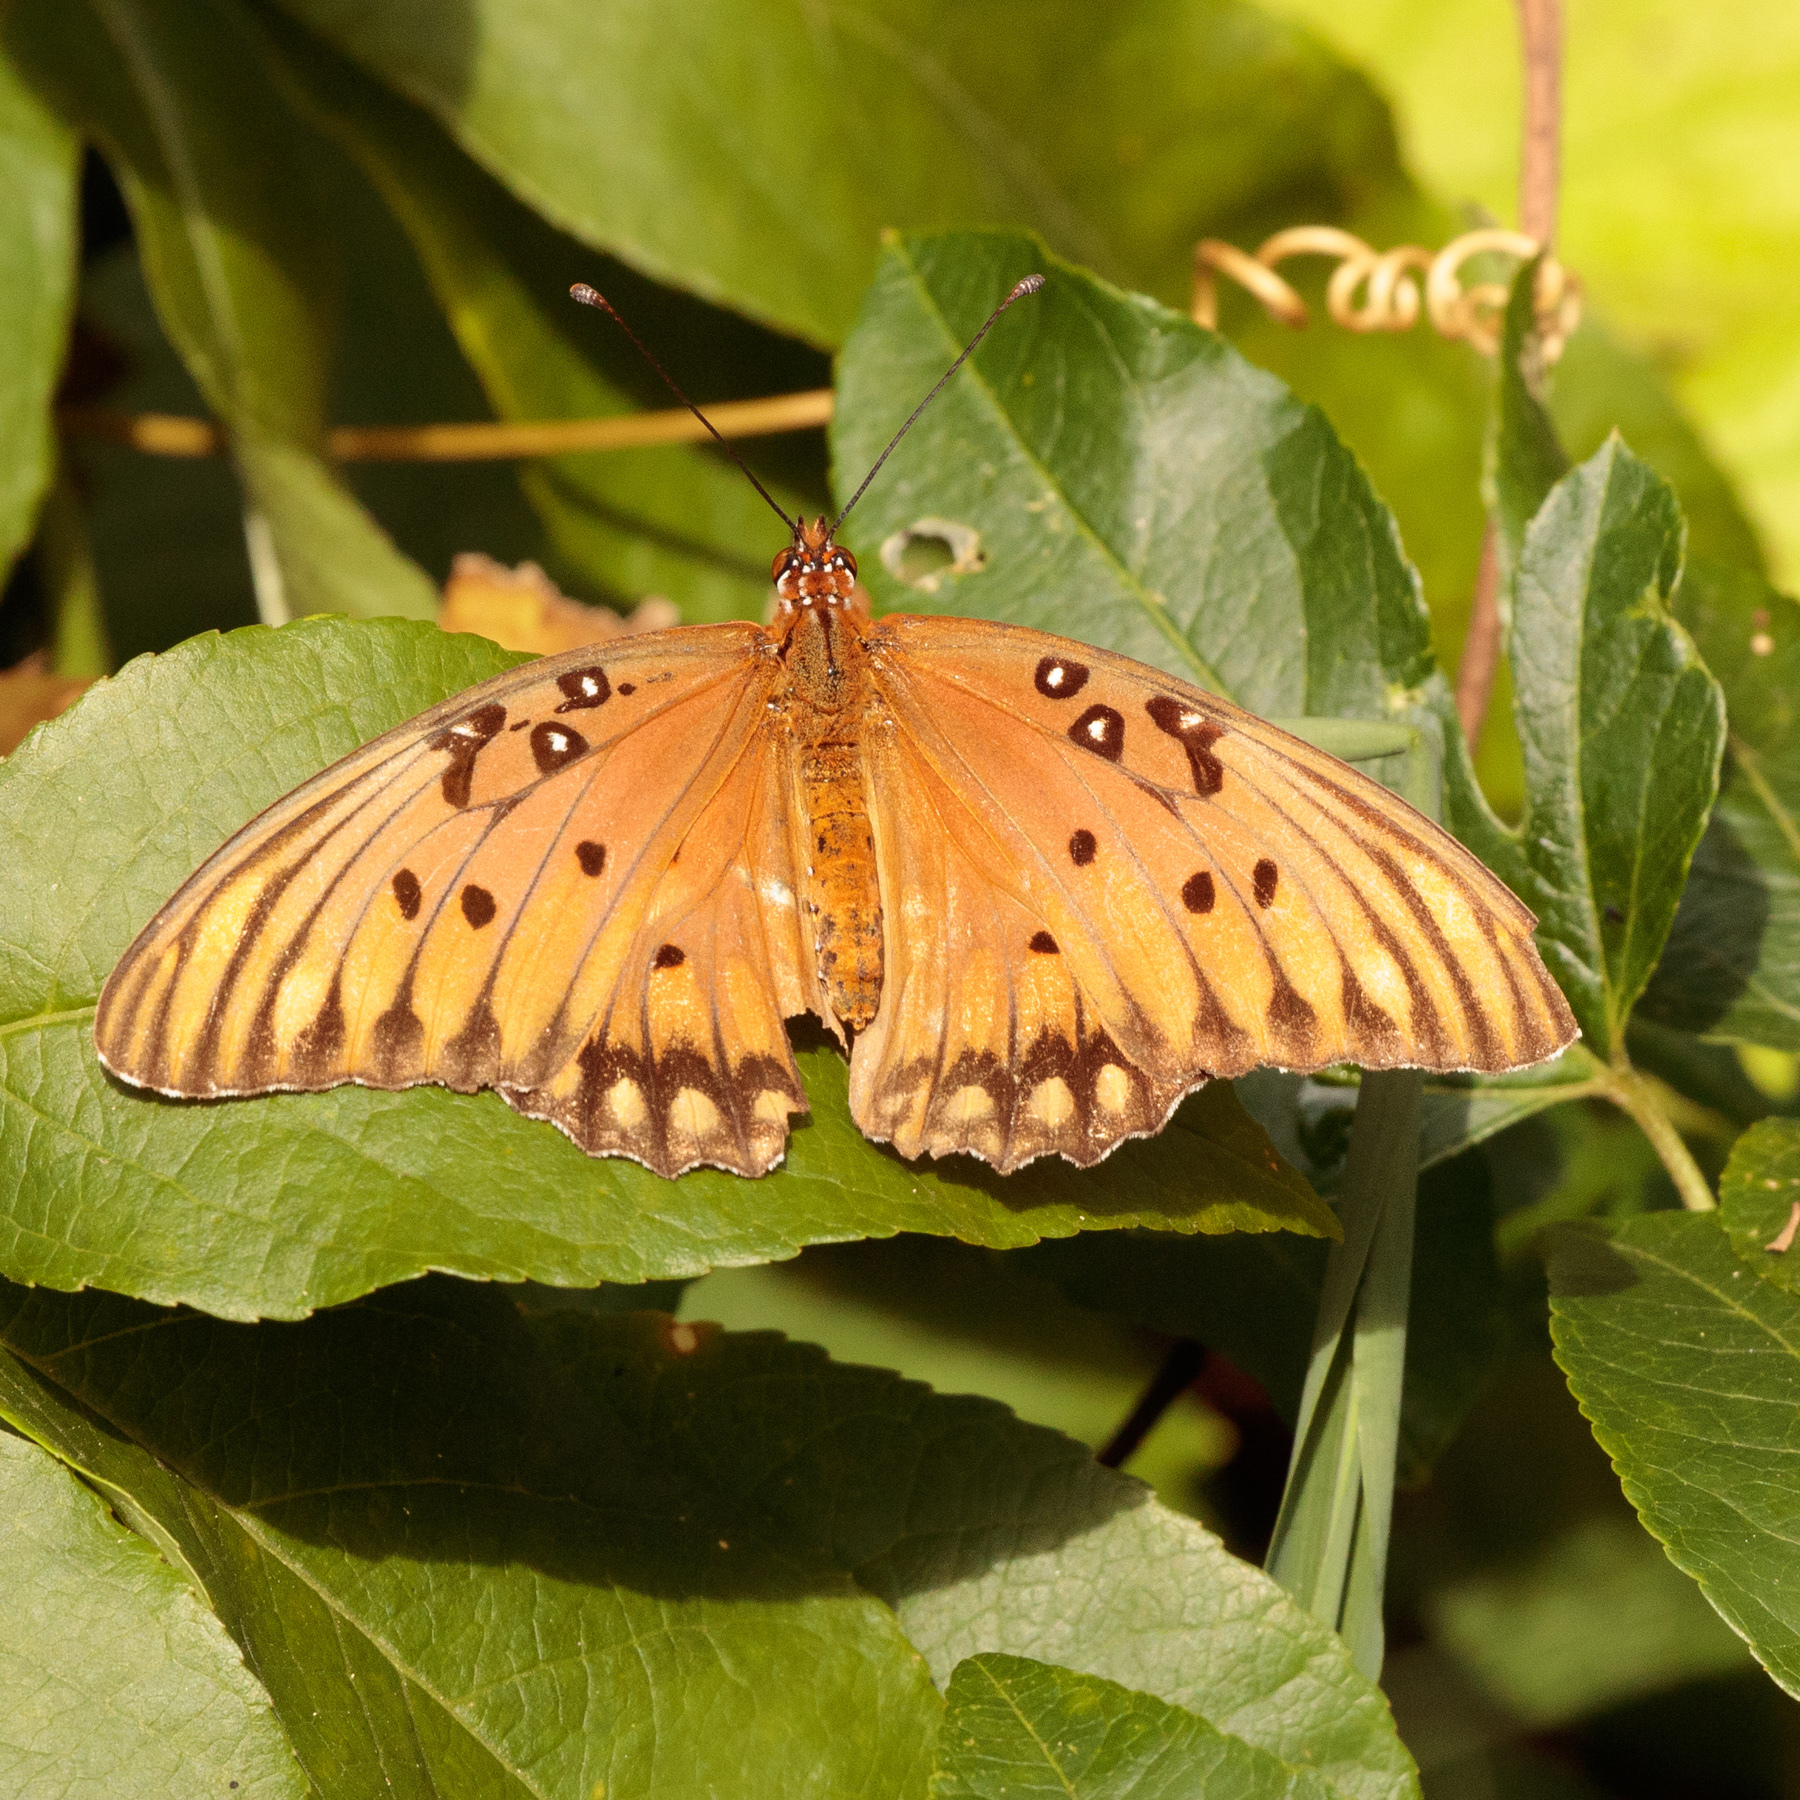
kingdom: Animalia
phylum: Arthropoda
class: Insecta
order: Lepidoptera
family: Nymphalidae
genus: Dione
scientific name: Dione vanillae
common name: Gulf fritillary
